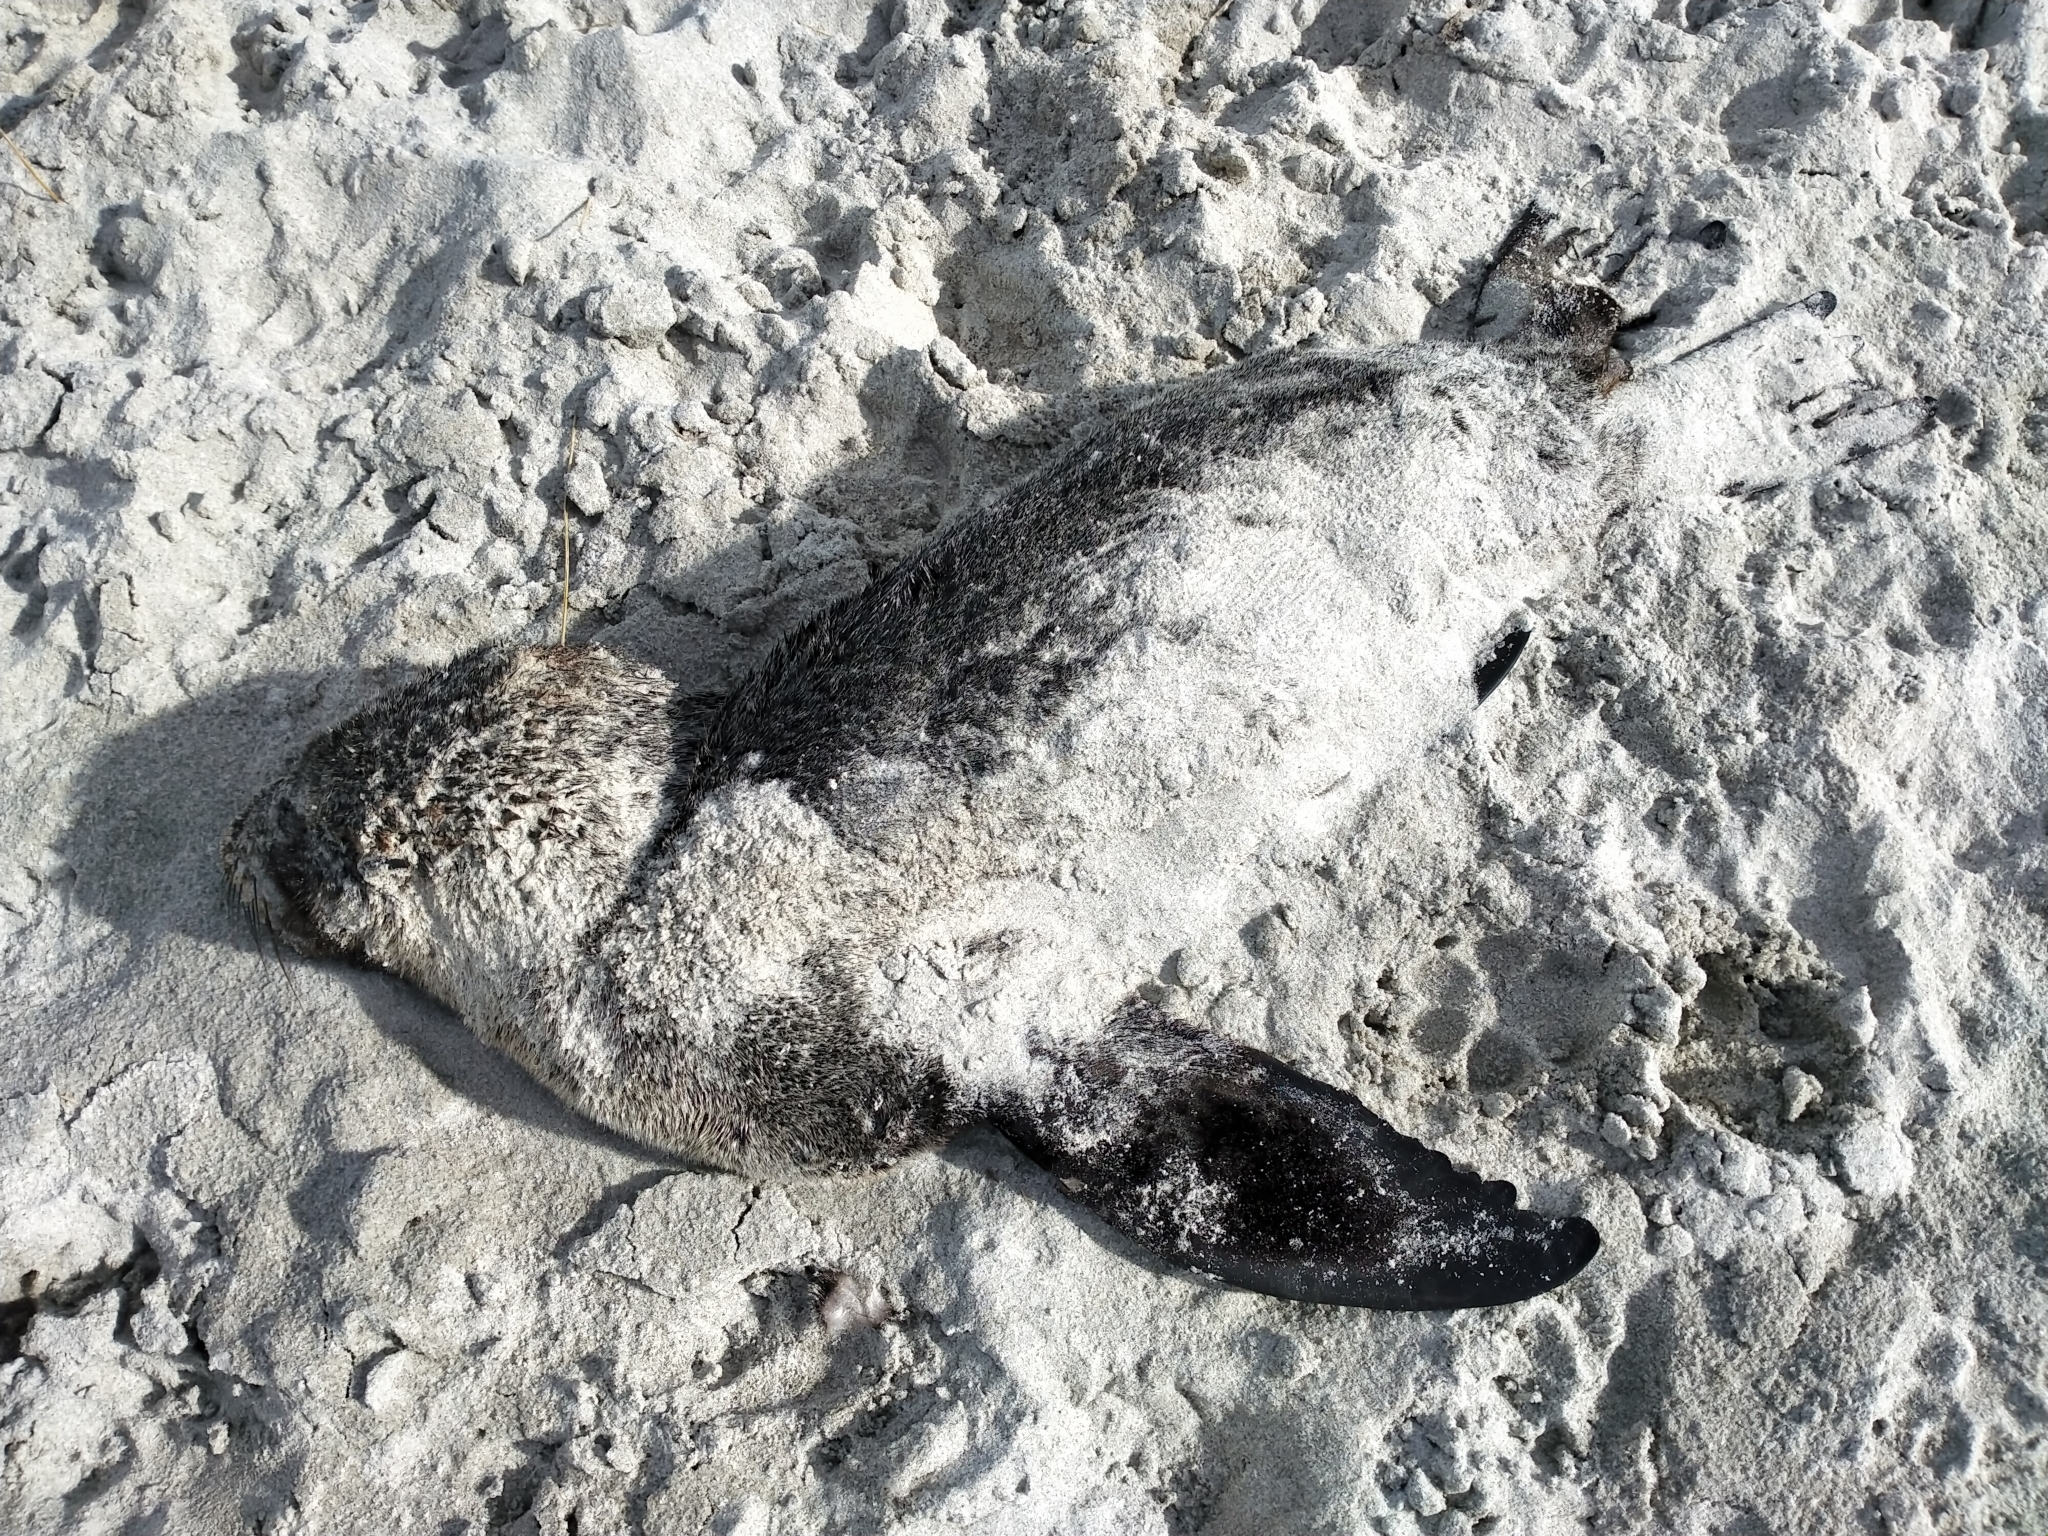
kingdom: Animalia
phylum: Chordata
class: Mammalia
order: Carnivora
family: Otariidae
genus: Arctocephalus
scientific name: Arctocephalus forsteri
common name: New zealand fur seal
